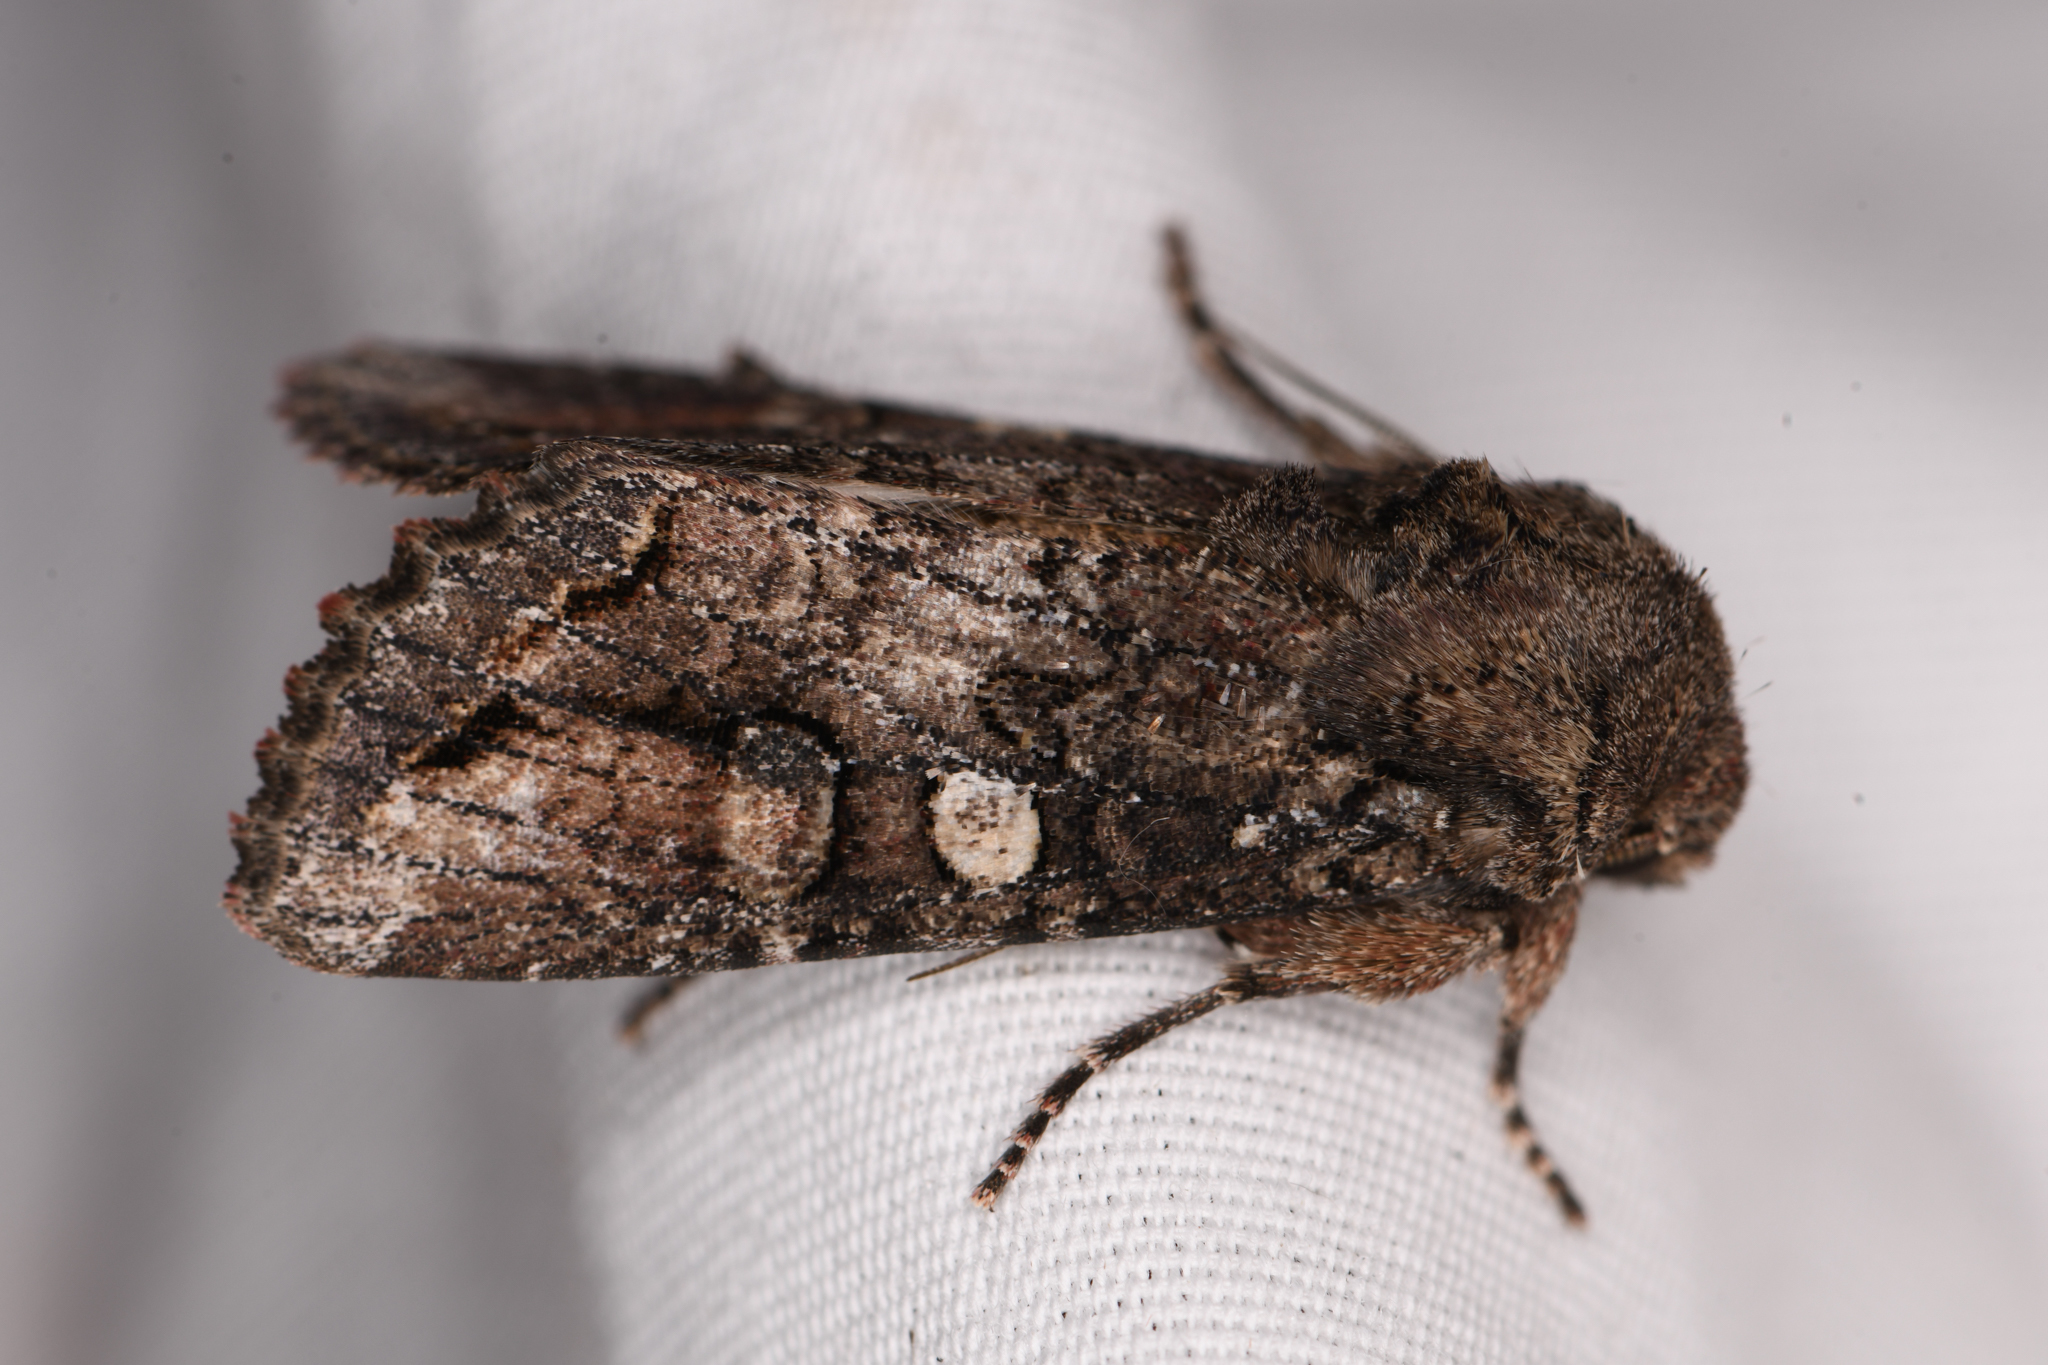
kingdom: Animalia
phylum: Arthropoda
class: Insecta
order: Lepidoptera
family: Noctuidae
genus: Egira
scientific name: Egira perlubens
